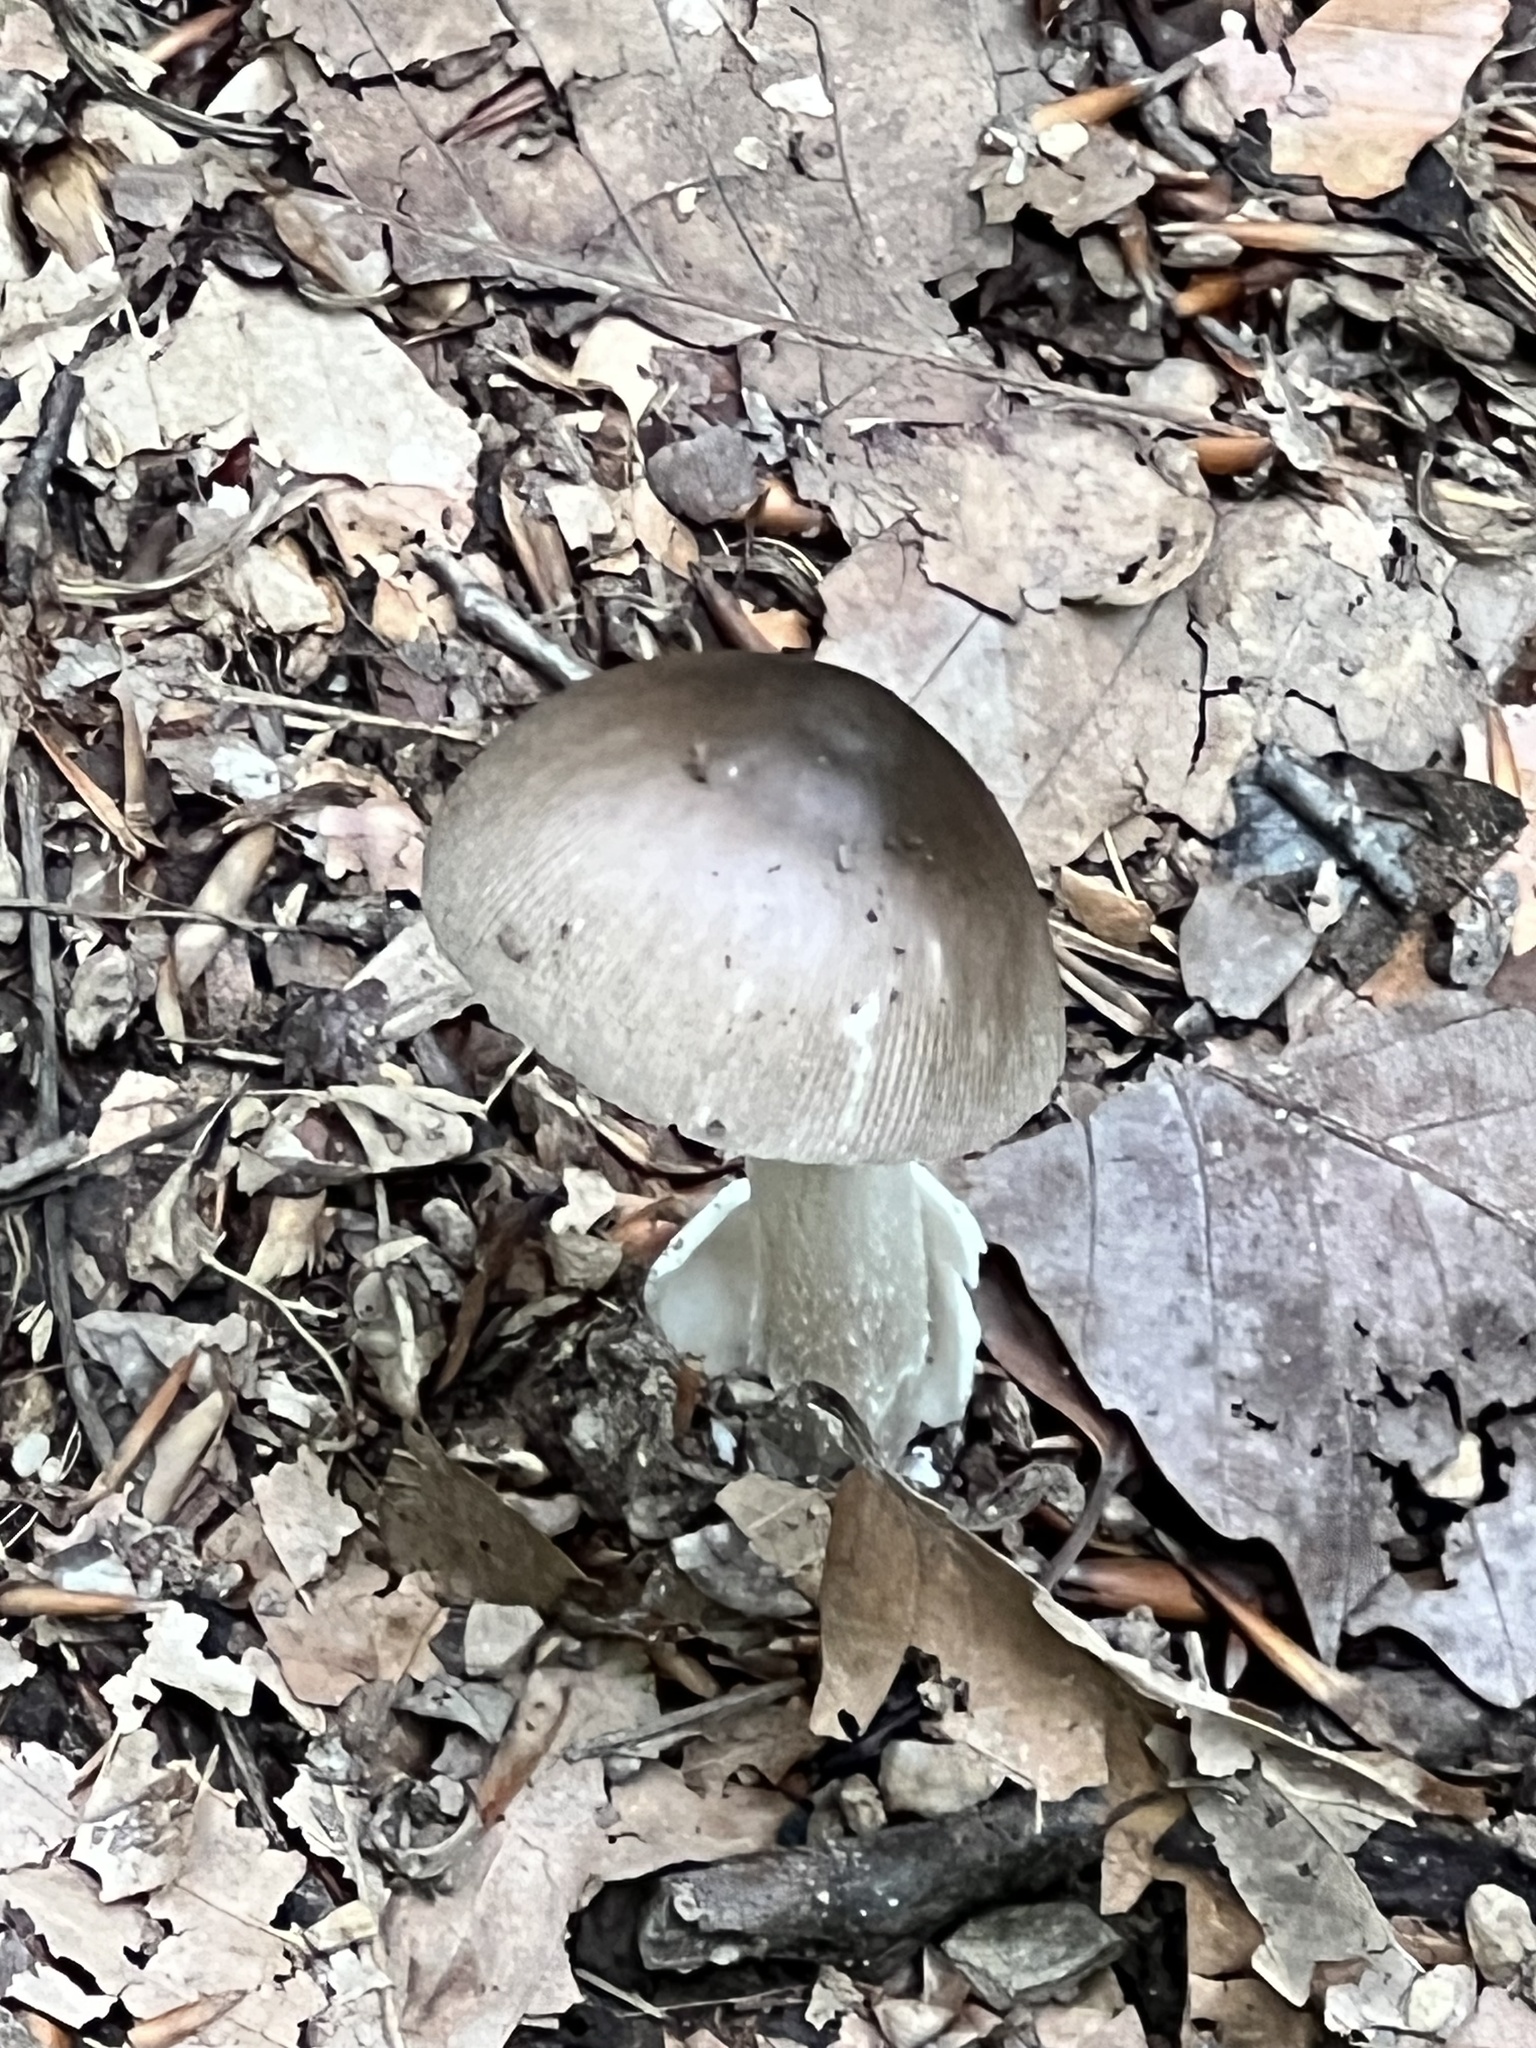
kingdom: Fungi
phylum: Basidiomycota
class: Agaricomycetes
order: Agaricales
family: Amanitaceae
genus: Amanita
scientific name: Amanita constricta
